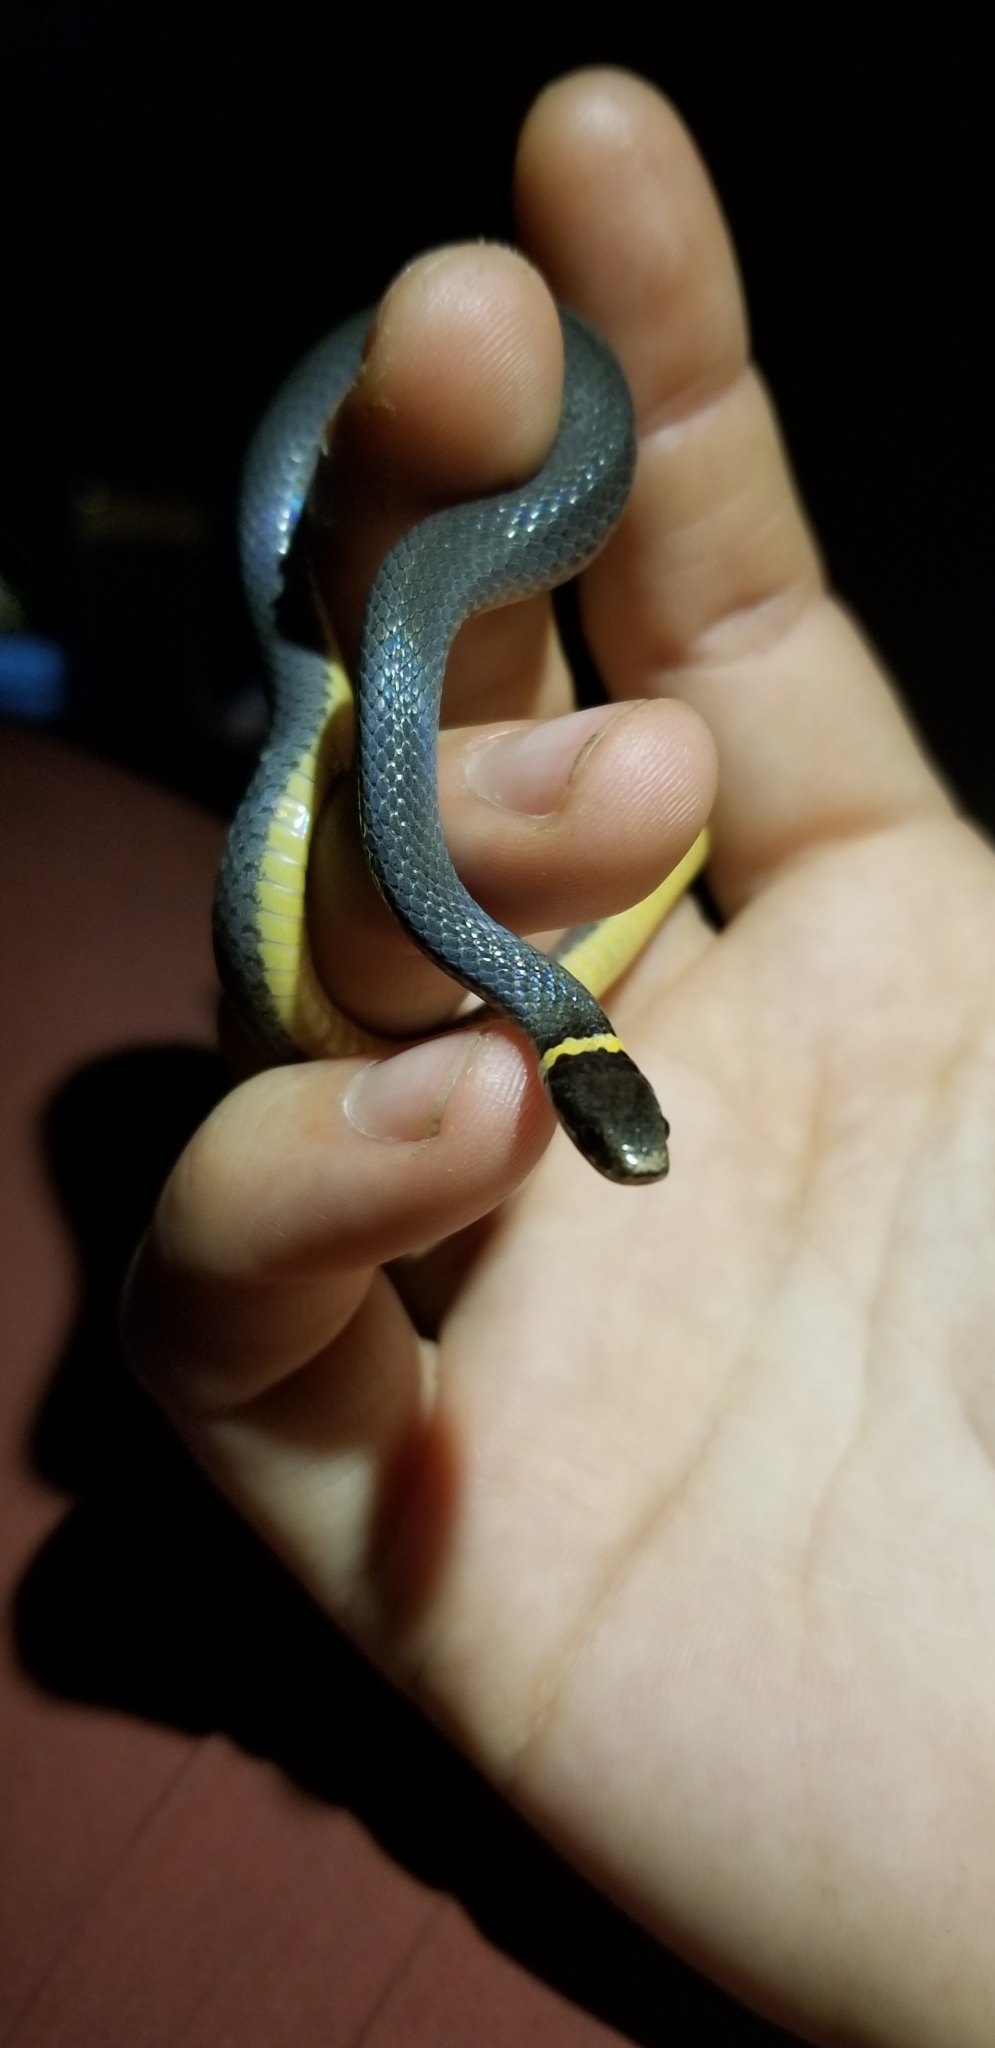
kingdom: Animalia
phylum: Chordata
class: Squamata
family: Colubridae
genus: Diadophis
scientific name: Diadophis punctatus
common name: Ringneck snake
